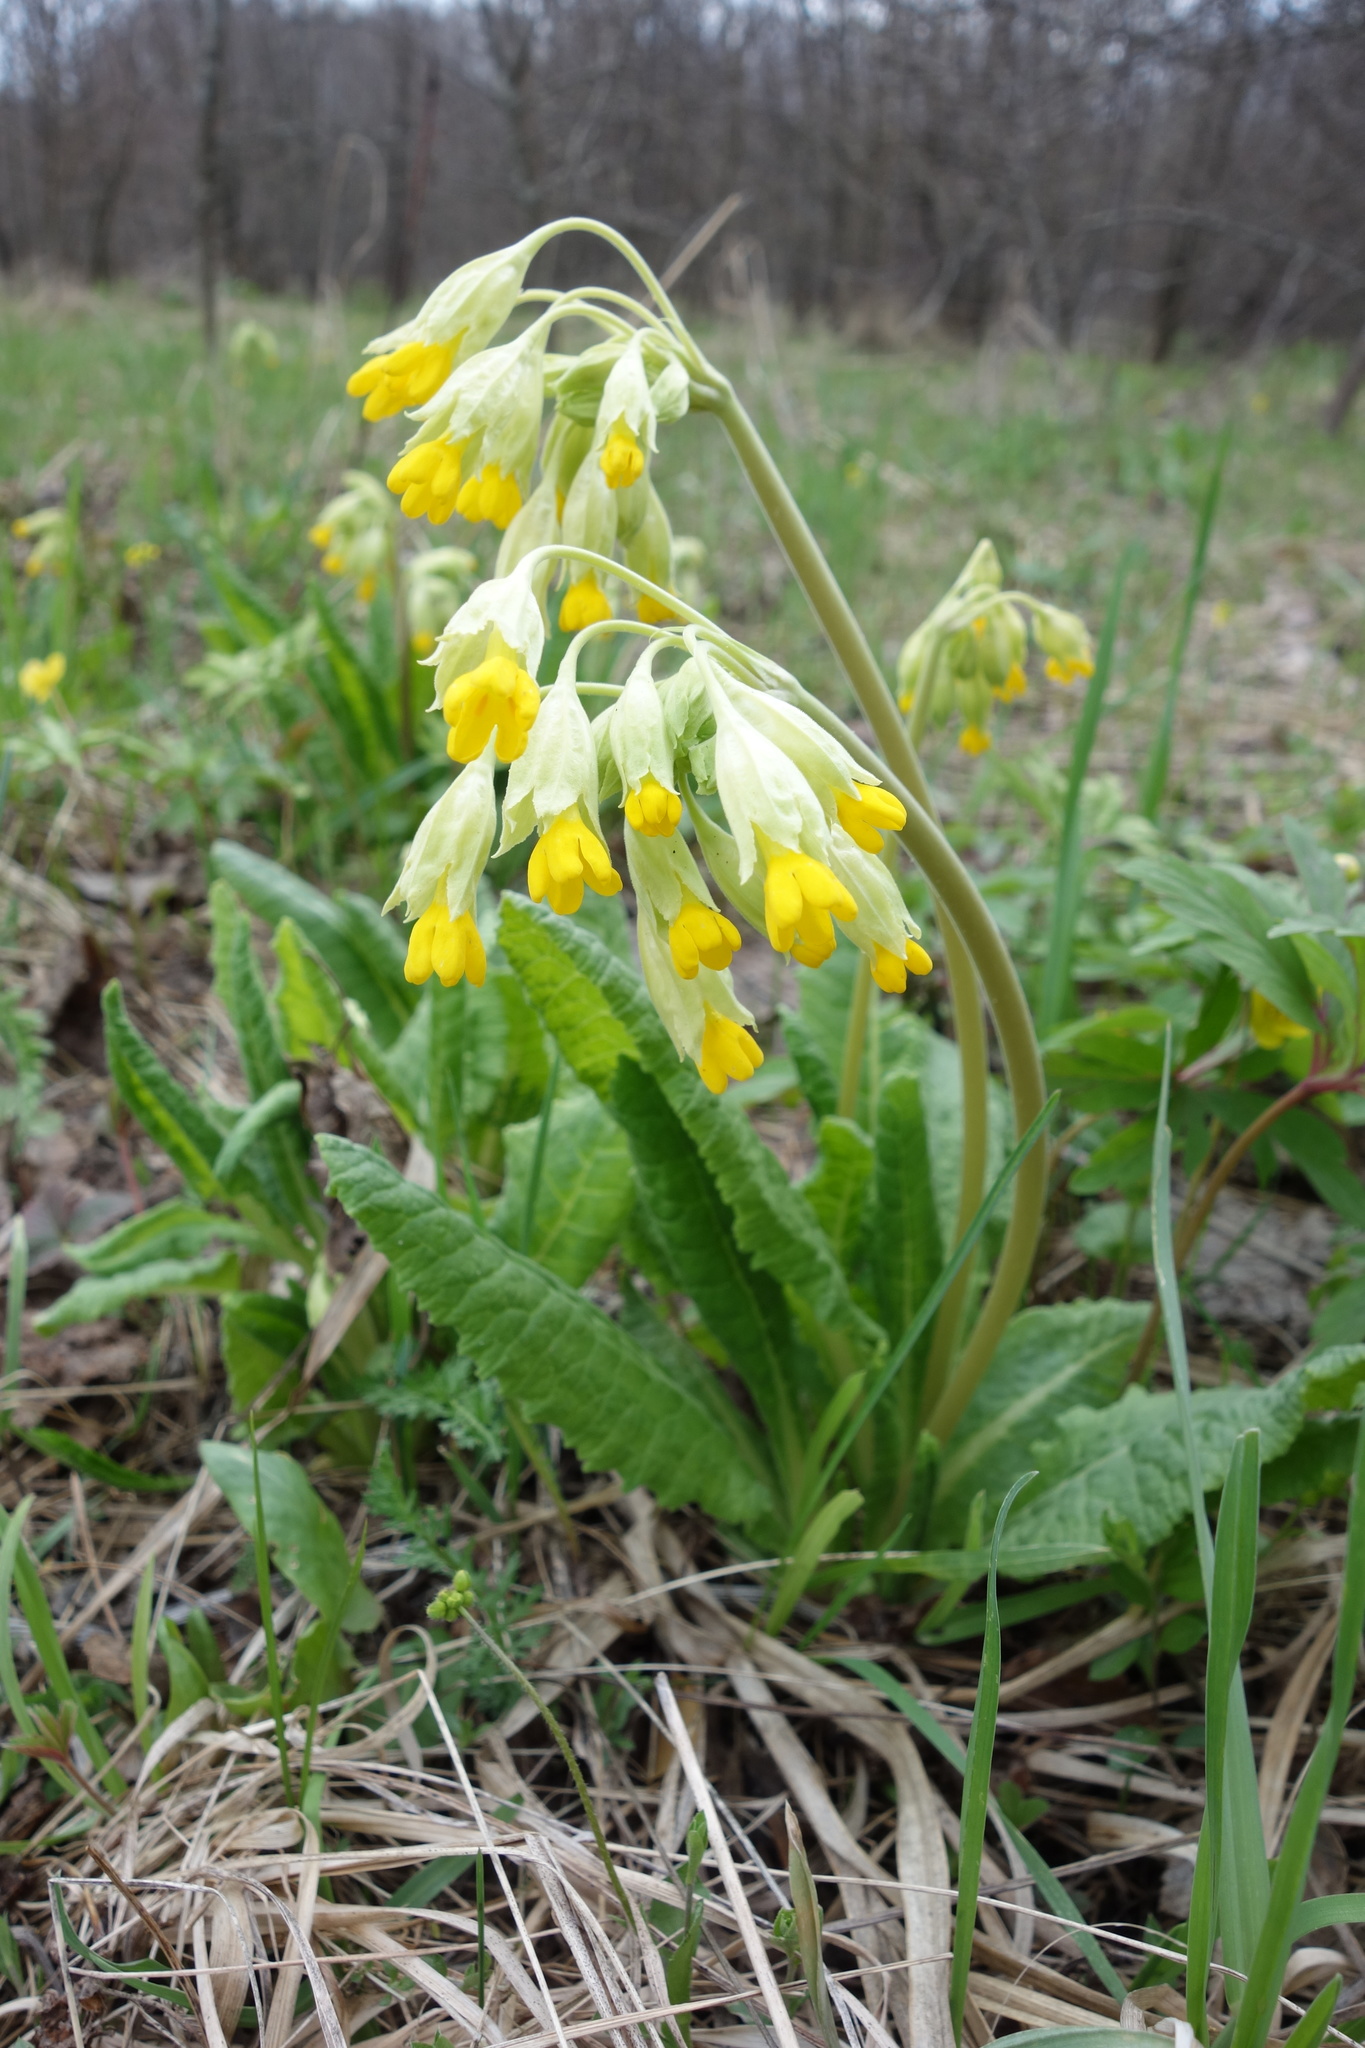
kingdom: Plantae
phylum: Tracheophyta
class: Magnoliopsida
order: Ericales
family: Primulaceae
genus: Primula
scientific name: Primula veris
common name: Cowslip
